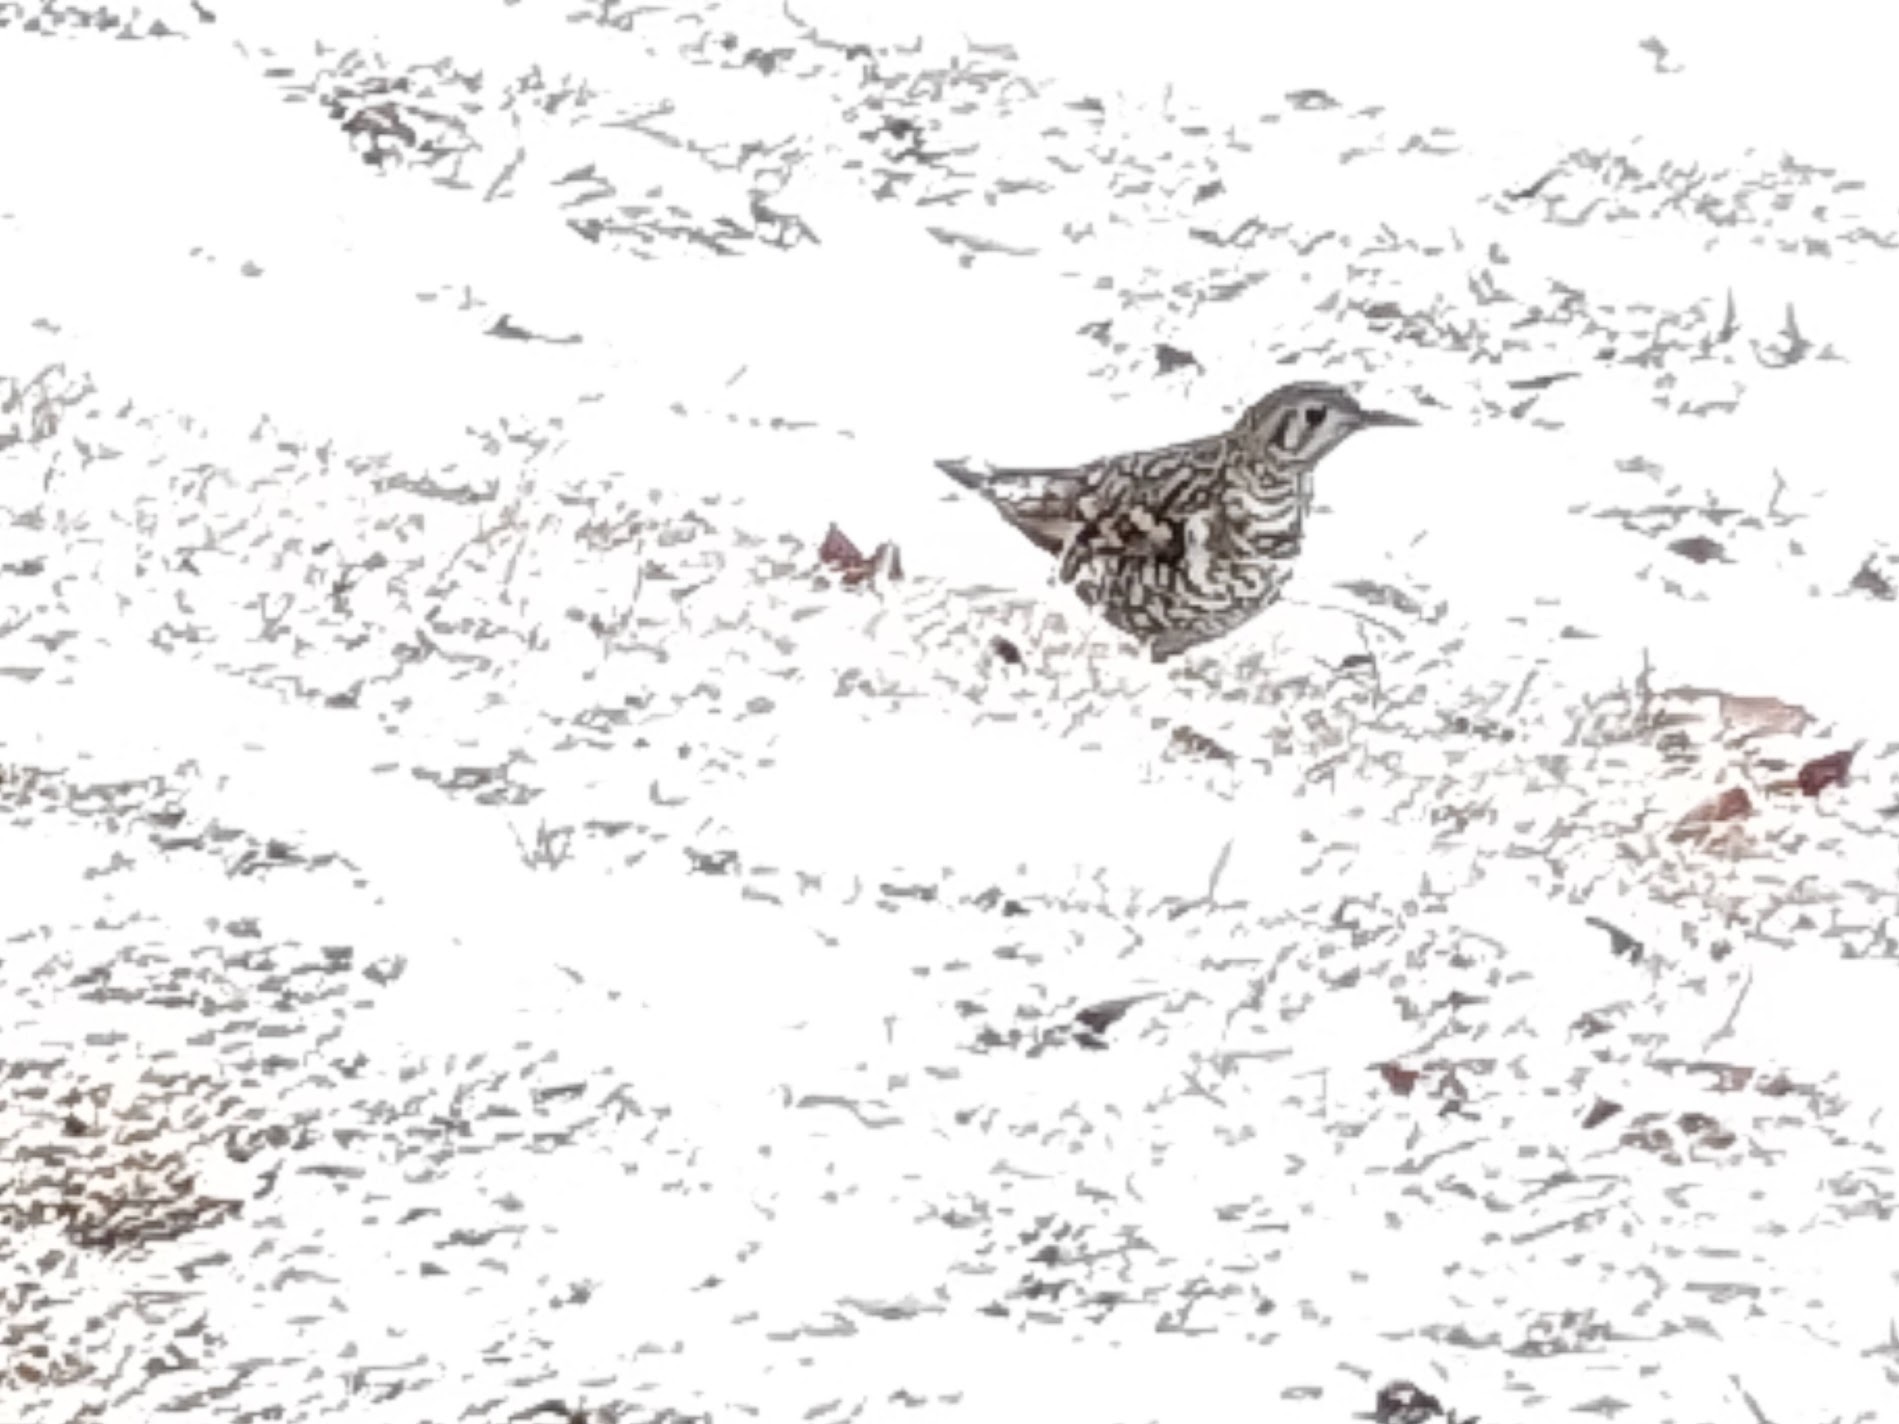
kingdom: Animalia
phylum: Chordata
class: Aves
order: Passeriformes
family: Turdidae
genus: Zoothera
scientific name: Zoothera aurea
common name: White's thrush
